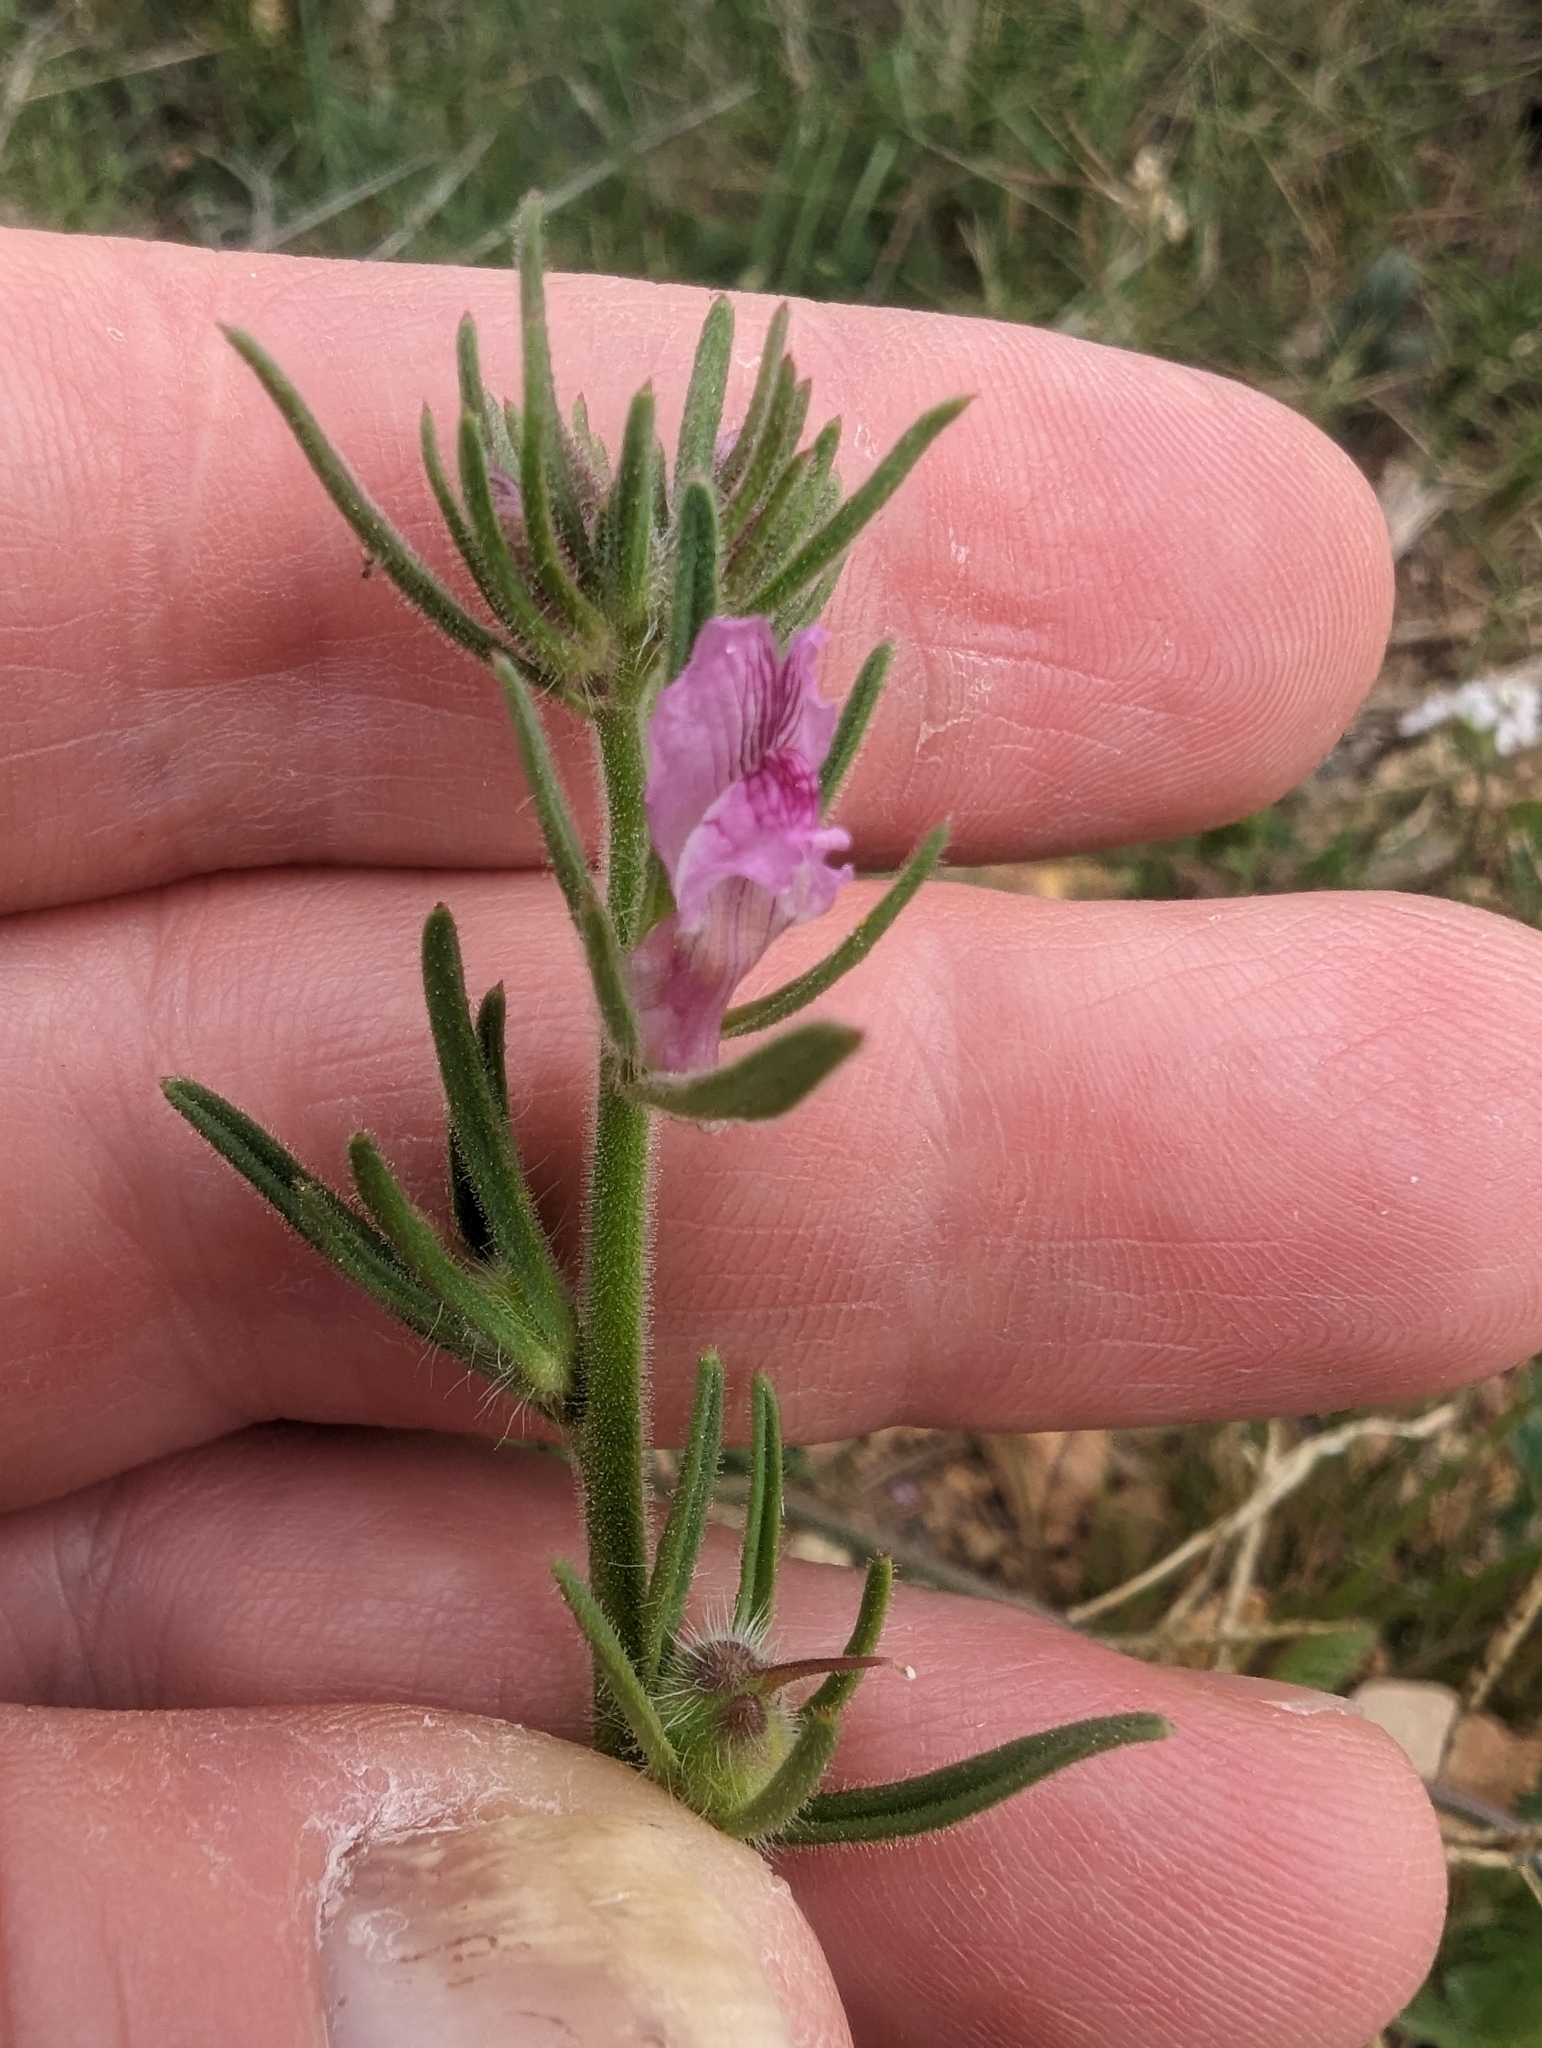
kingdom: Plantae
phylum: Tracheophyta
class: Magnoliopsida
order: Lamiales
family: Plantaginaceae
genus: Misopates
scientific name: Misopates orontium
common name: Weasel's-snout
